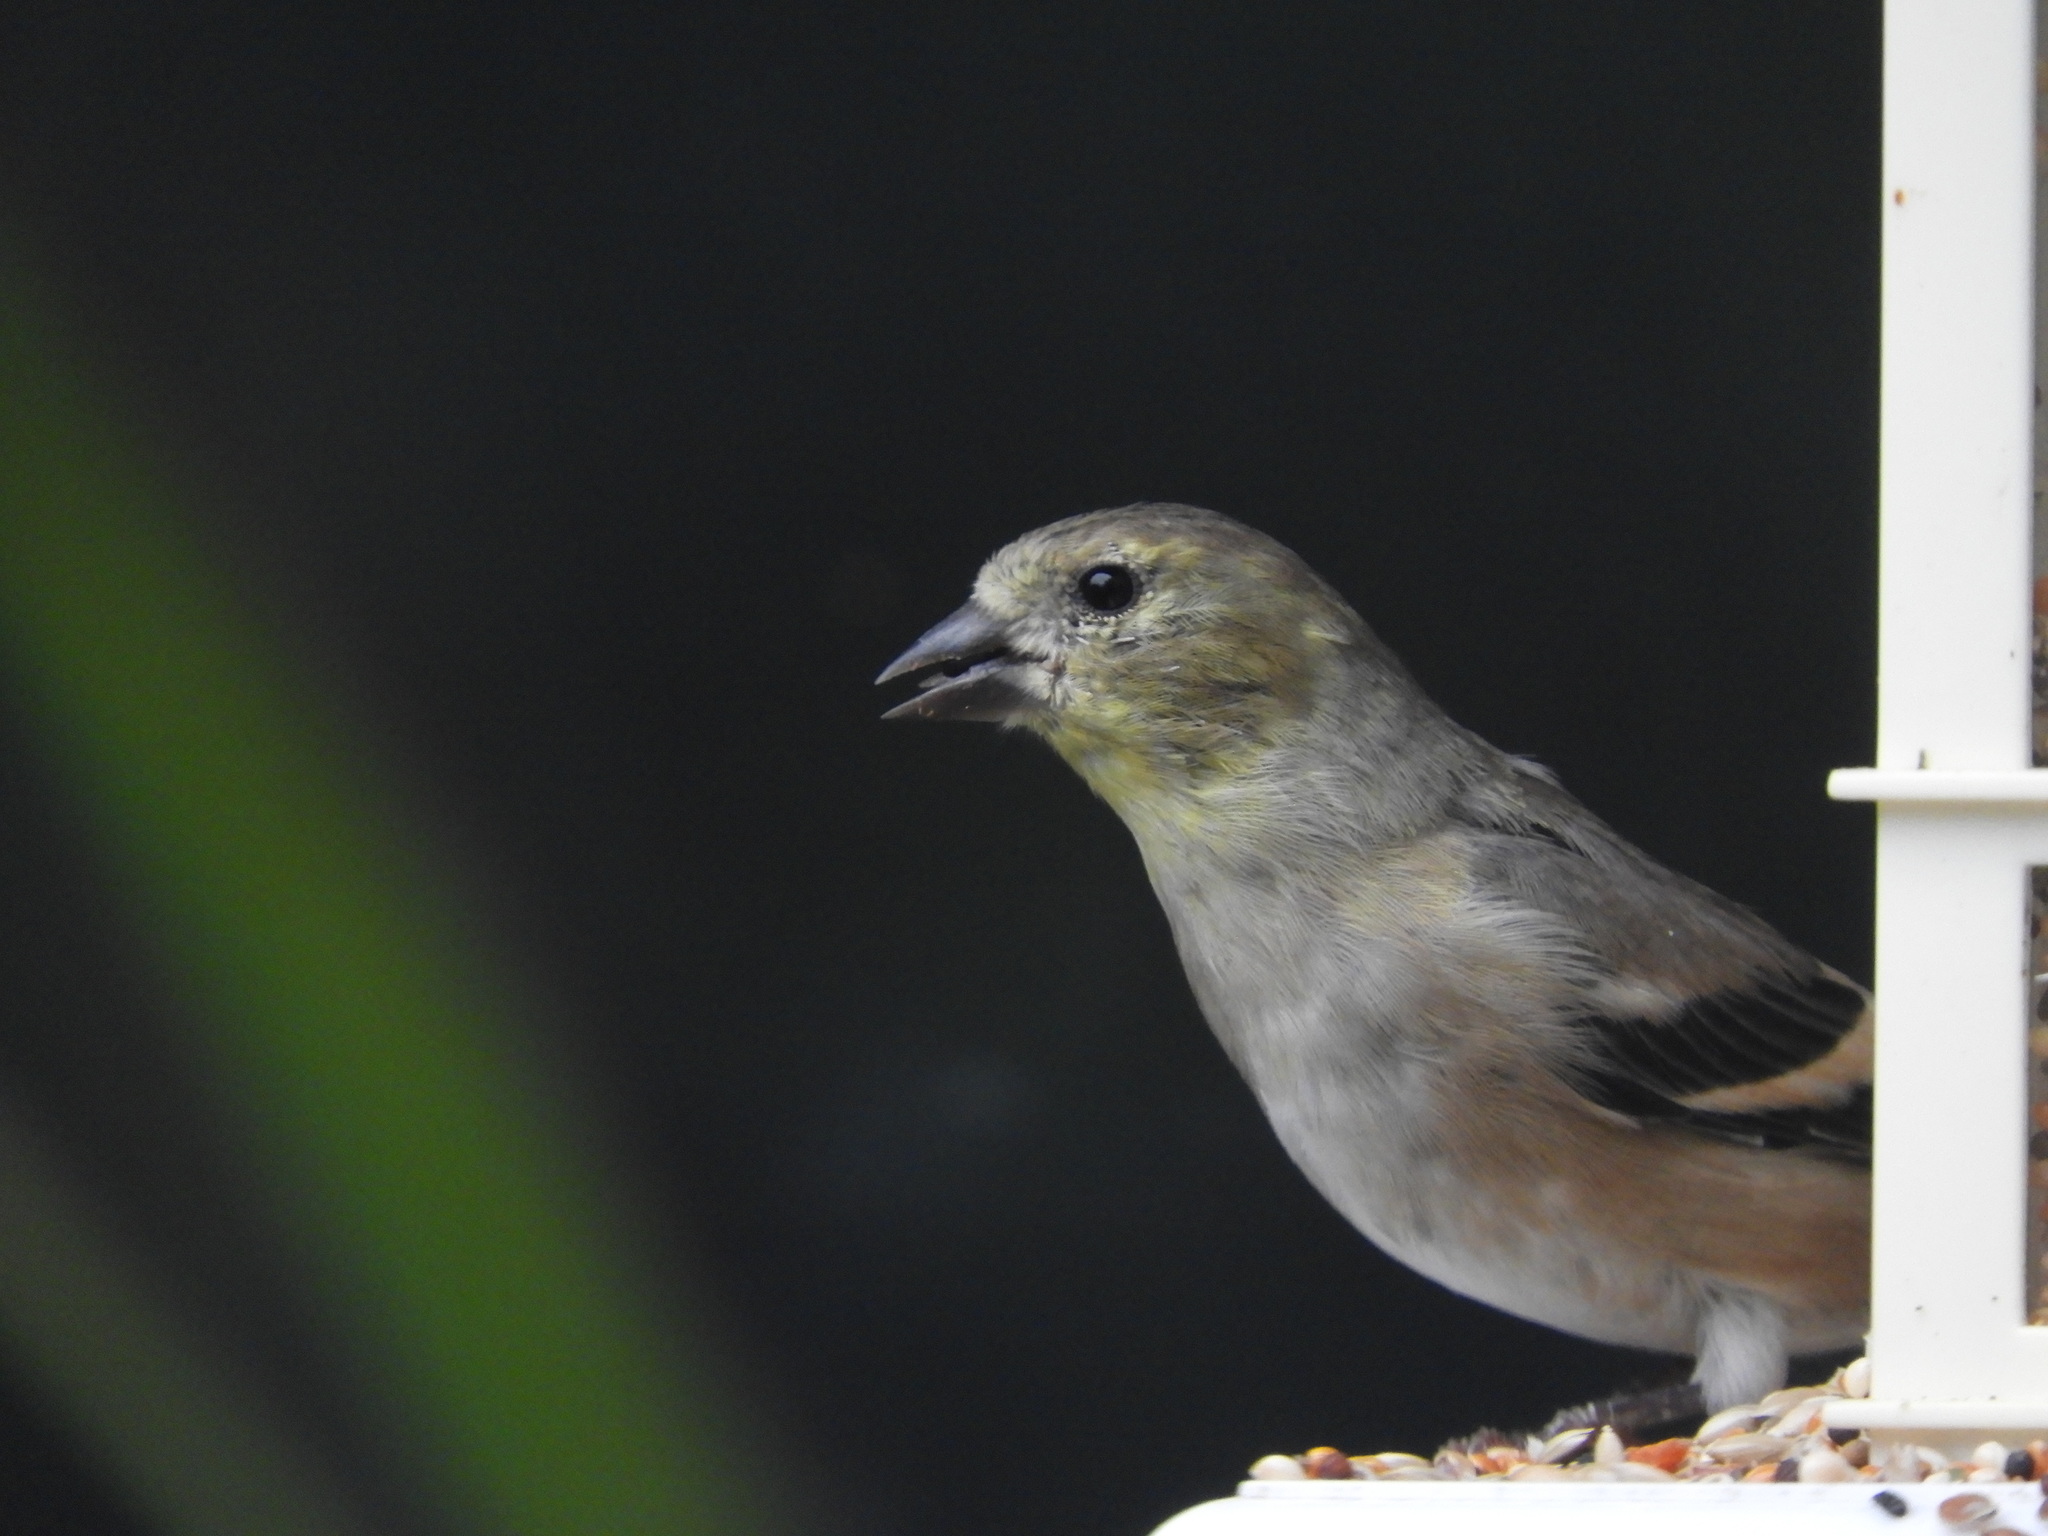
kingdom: Animalia
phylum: Chordata
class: Aves
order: Passeriformes
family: Fringillidae
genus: Spinus
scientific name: Spinus tristis
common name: American goldfinch
